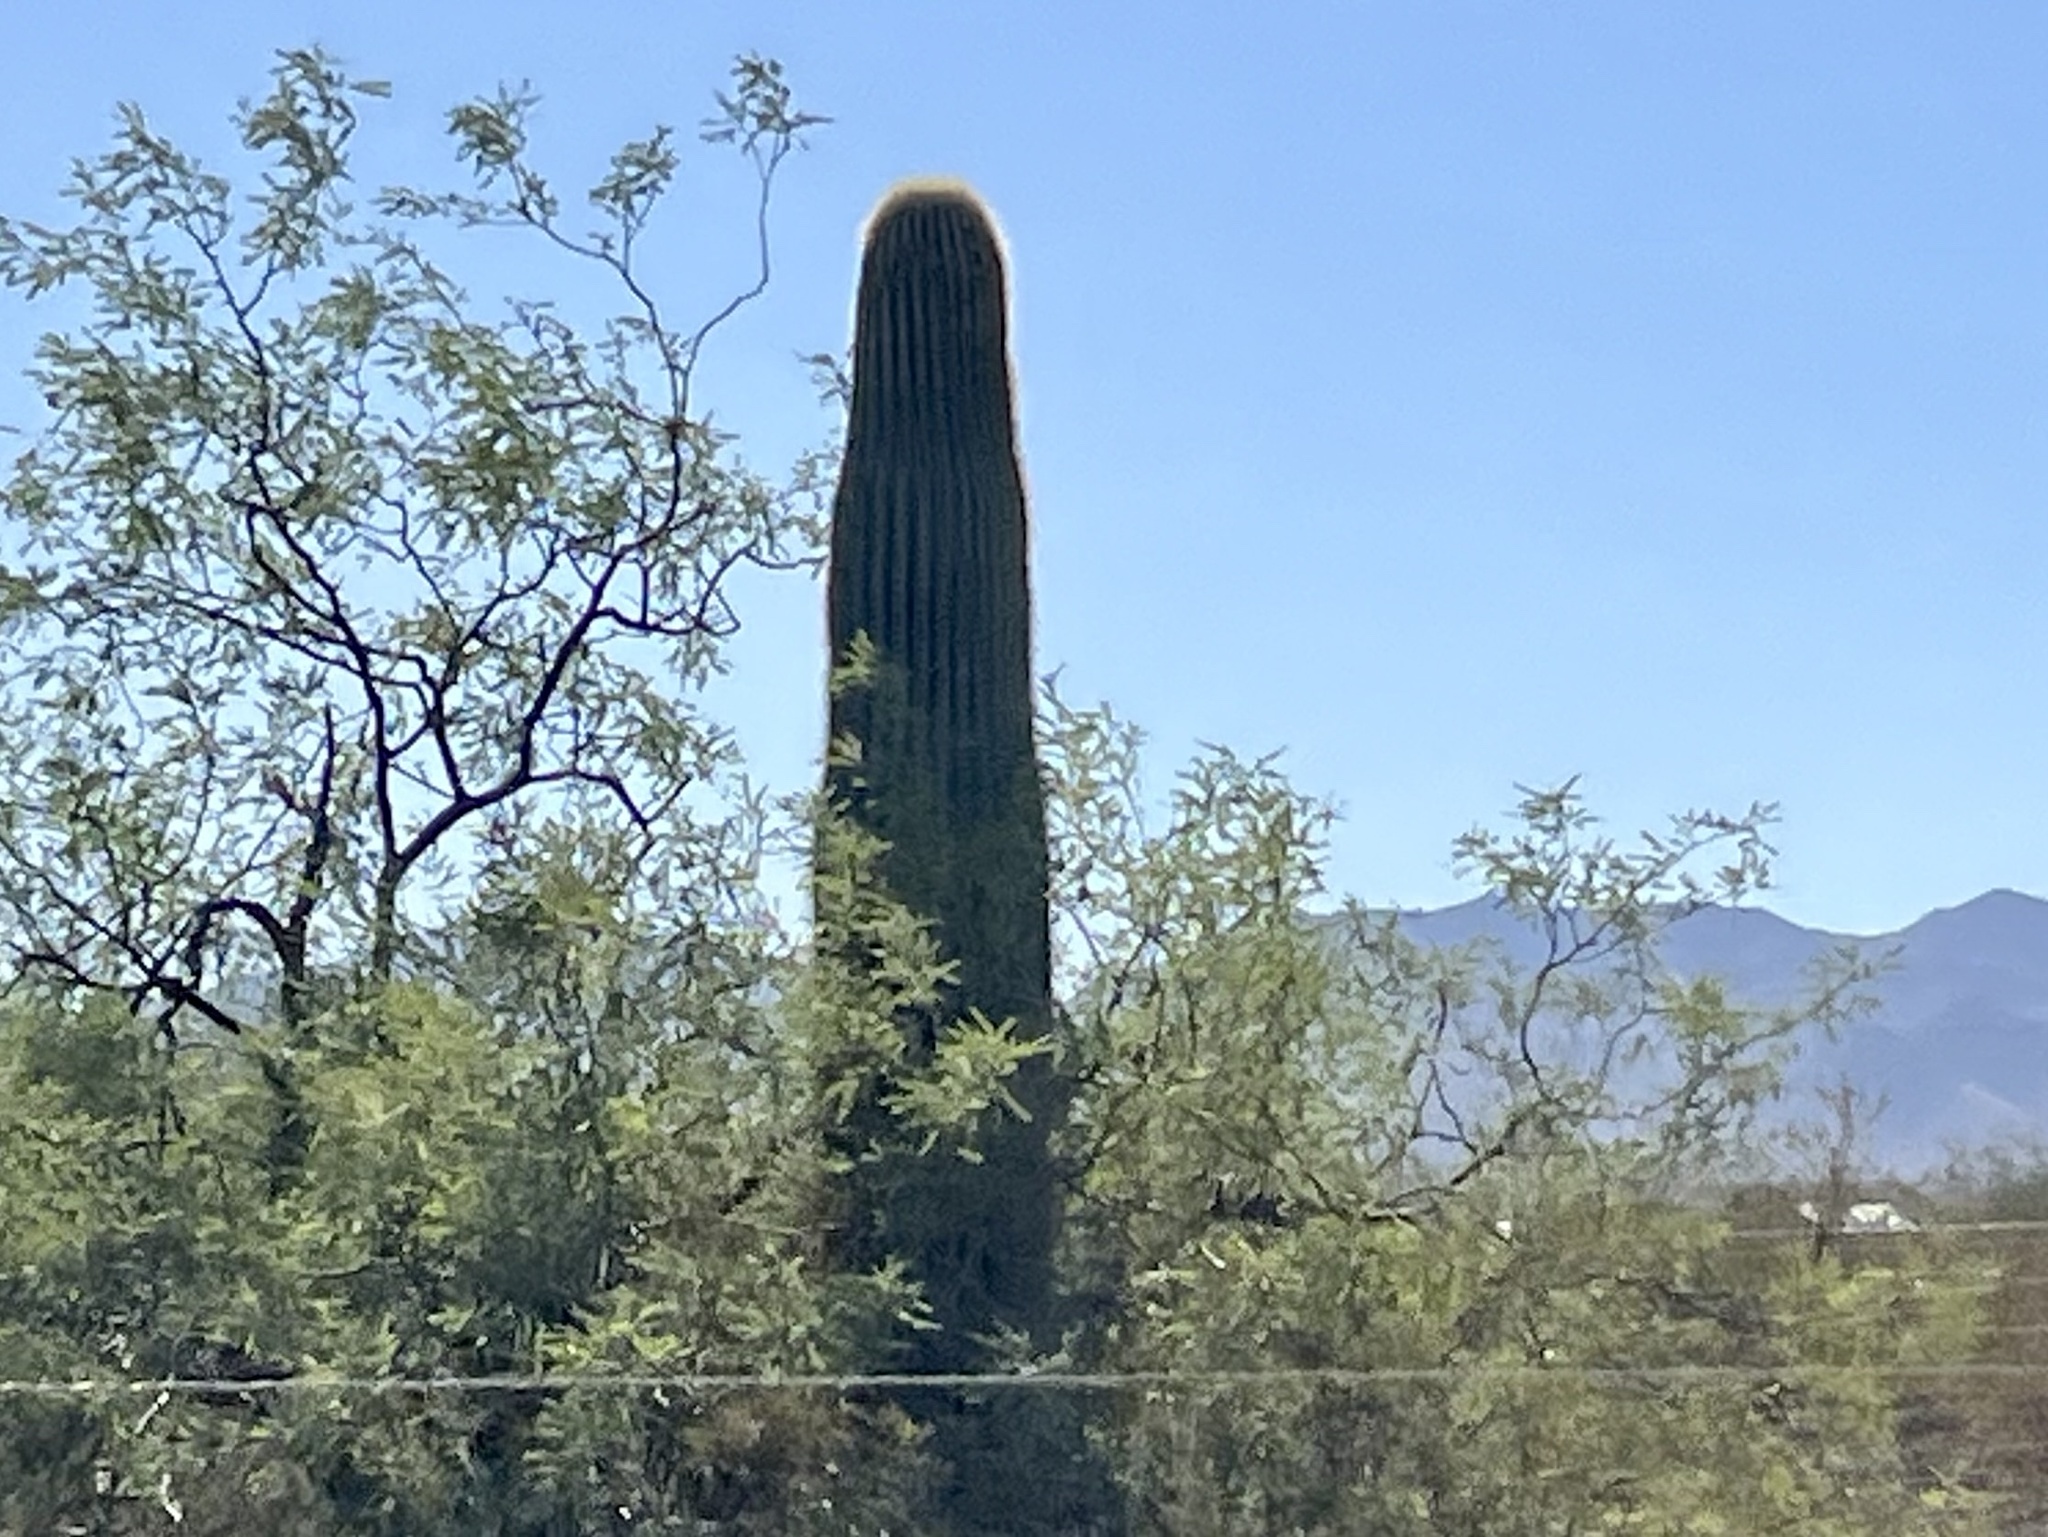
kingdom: Plantae
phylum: Tracheophyta
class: Magnoliopsida
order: Caryophyllales
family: Cactaceae
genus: Carnegiea
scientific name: Carnegiea gigantea
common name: Saguaro
